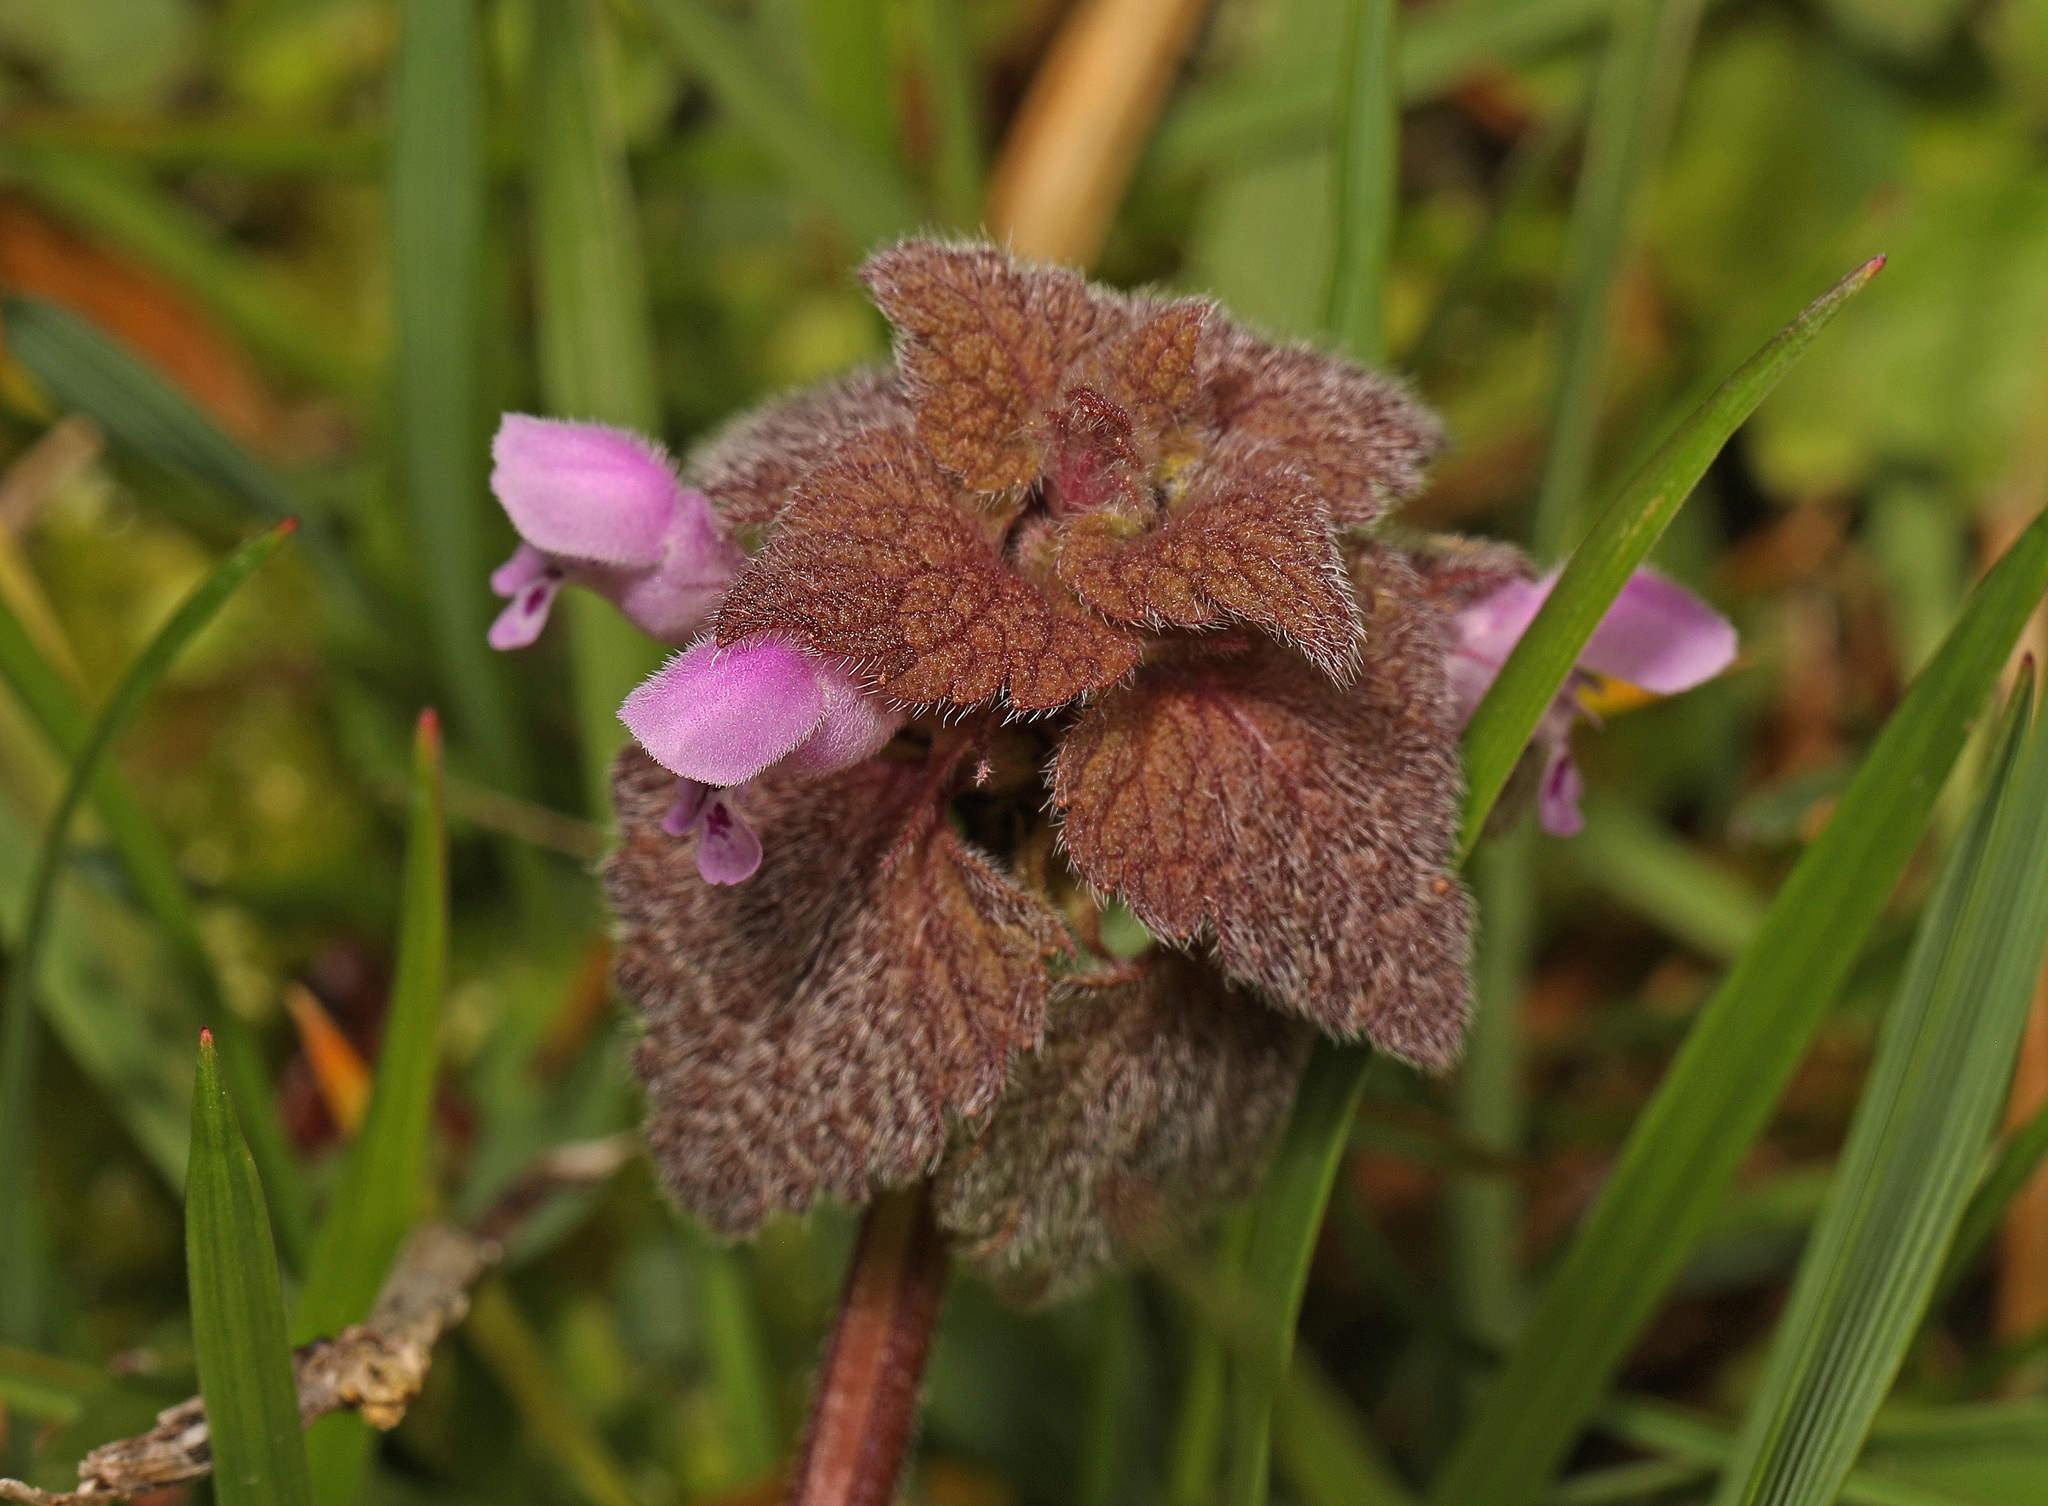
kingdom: Plantae
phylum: Tracheophyta
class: Magnoliopsida
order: Lamiales
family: Lamiaceae
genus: Lamium
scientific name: Lamium purpureum
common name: Red dead-nettle
